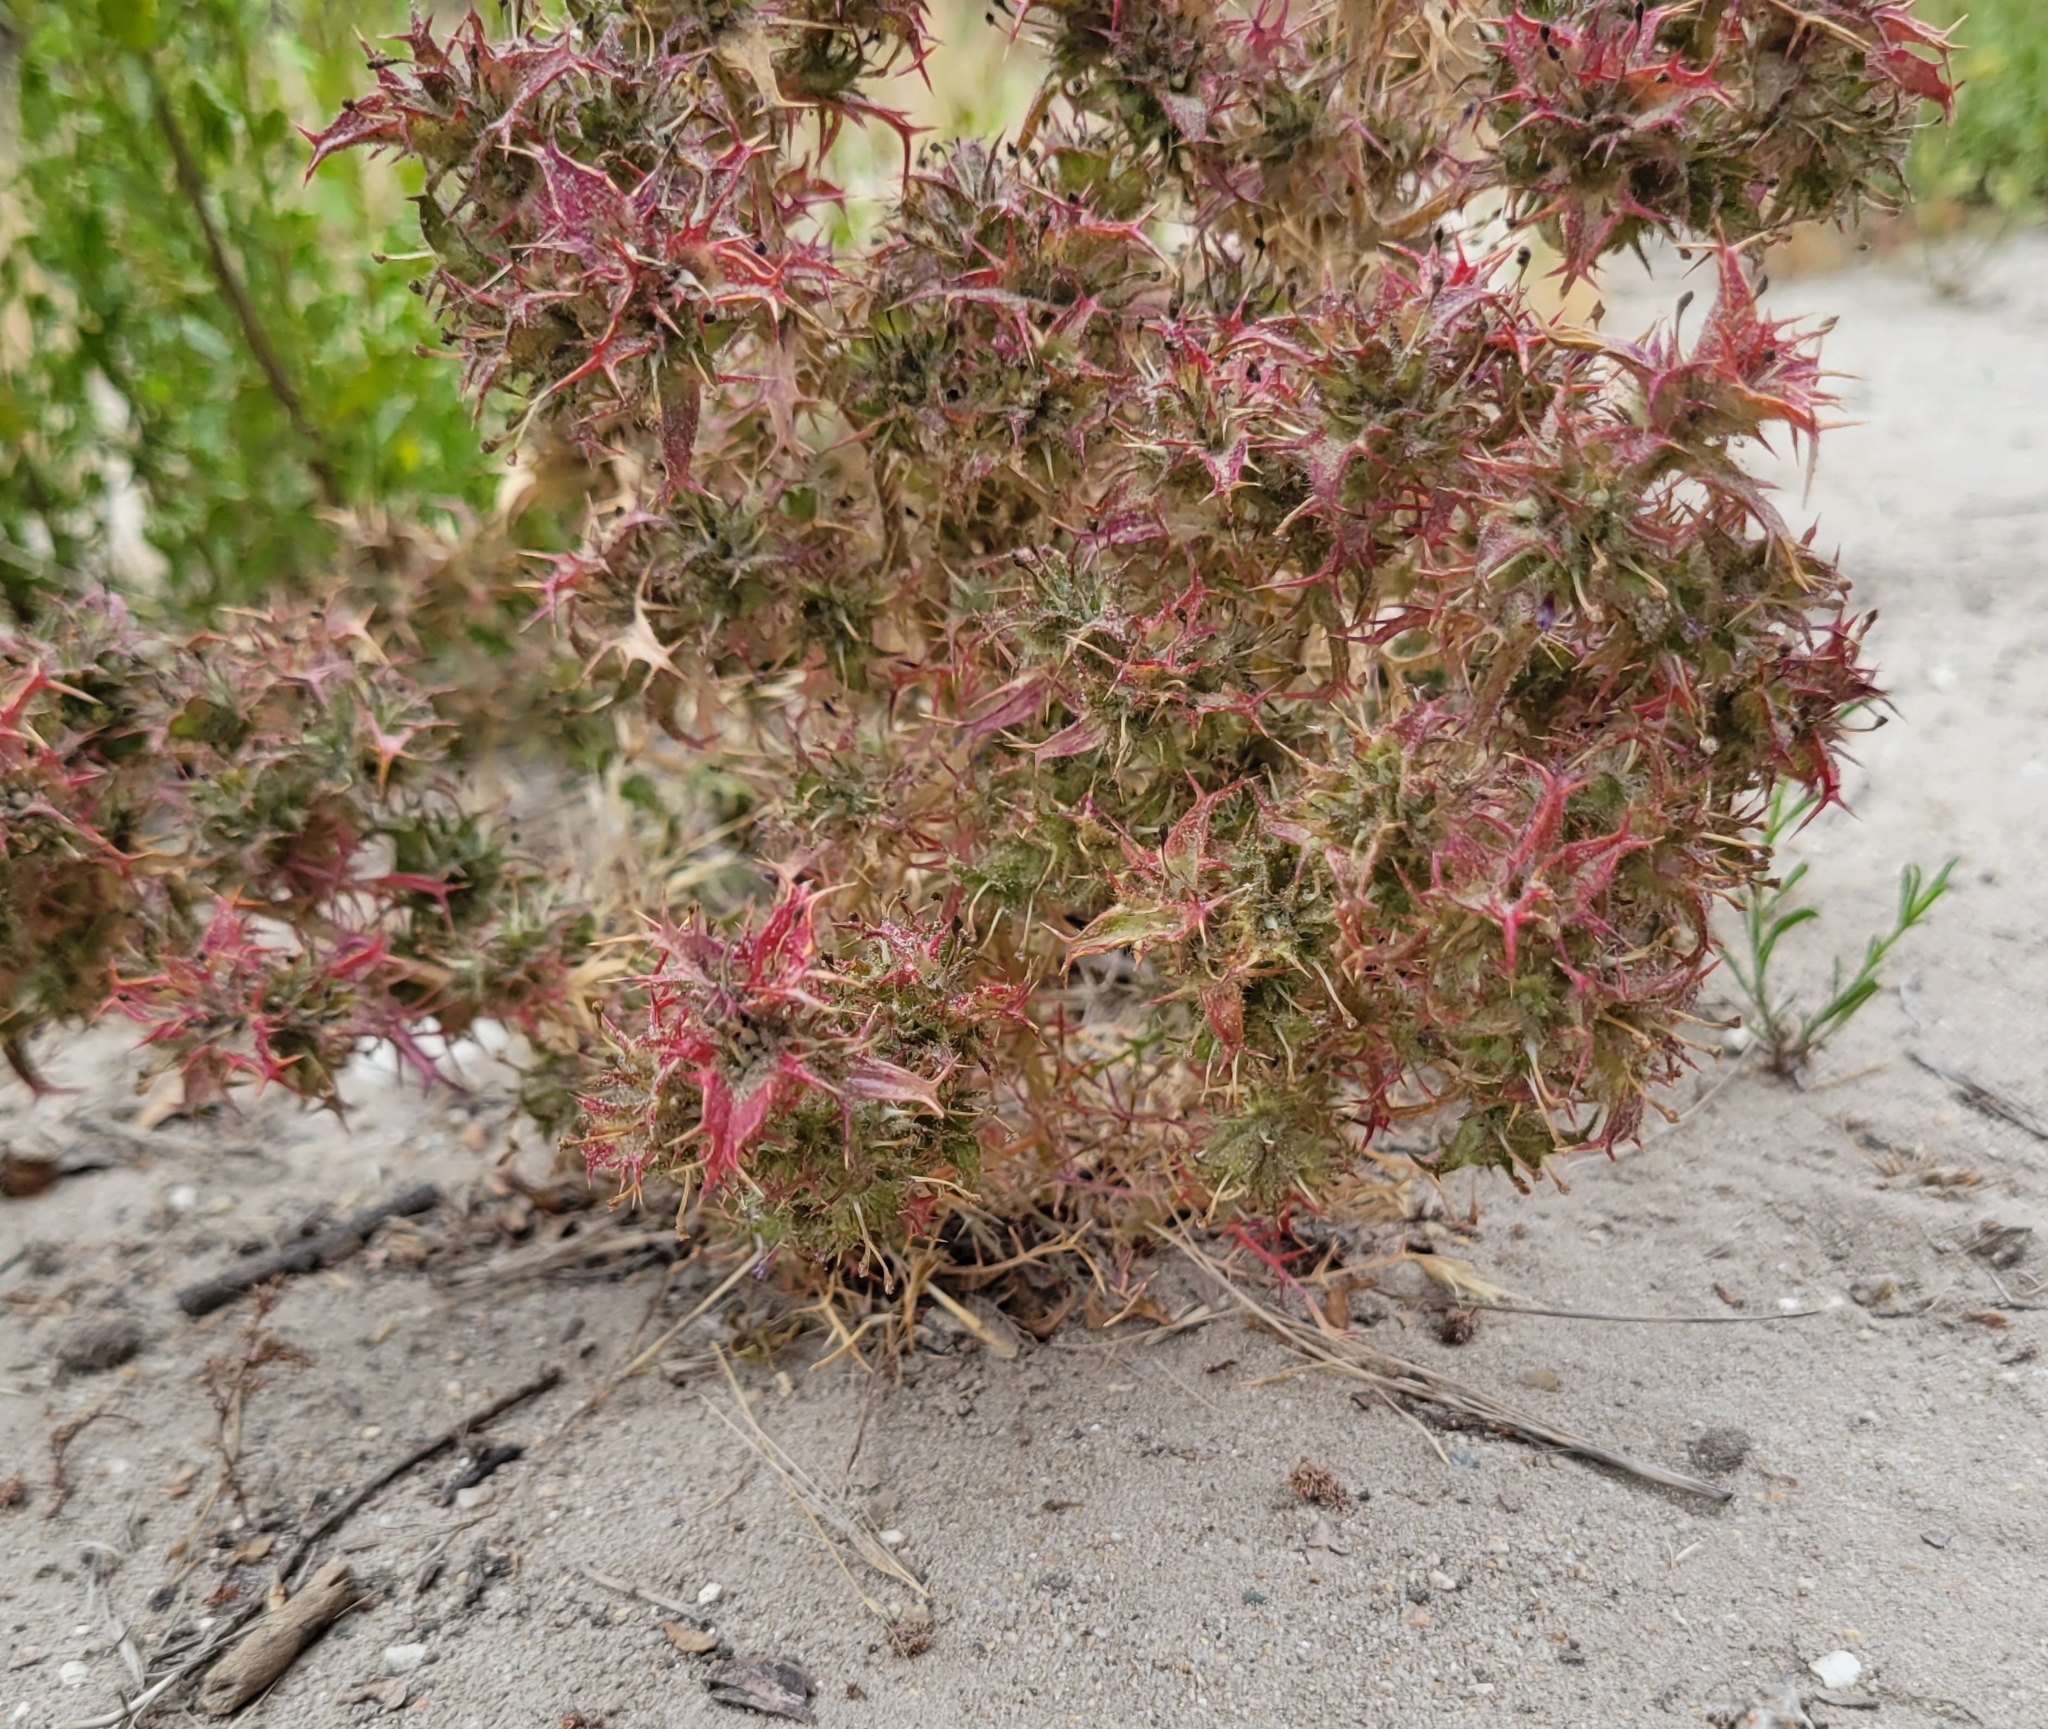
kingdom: Plantae
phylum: Tracheophyta
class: Magnoliopsida
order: Ericales
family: Polemoniaceae
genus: Navarretia
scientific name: Navarretia atractyloides
